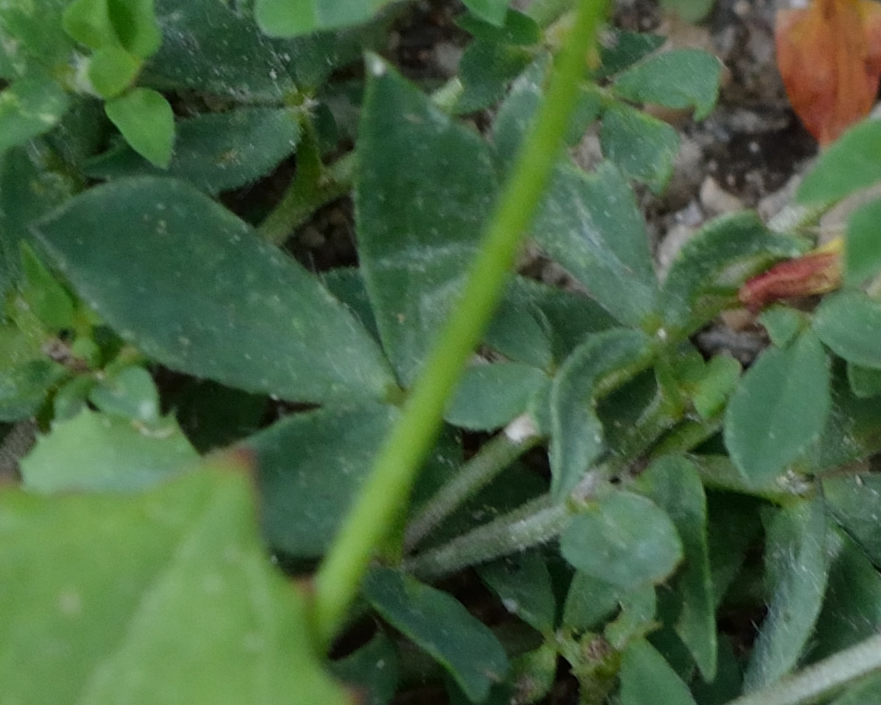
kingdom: Plantae
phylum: Tracheophyta
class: Magnoliopsida
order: Fabales
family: Fabaceae
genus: Lotus
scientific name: Lotus corniculatus
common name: Common bird's-foot-trefoil
